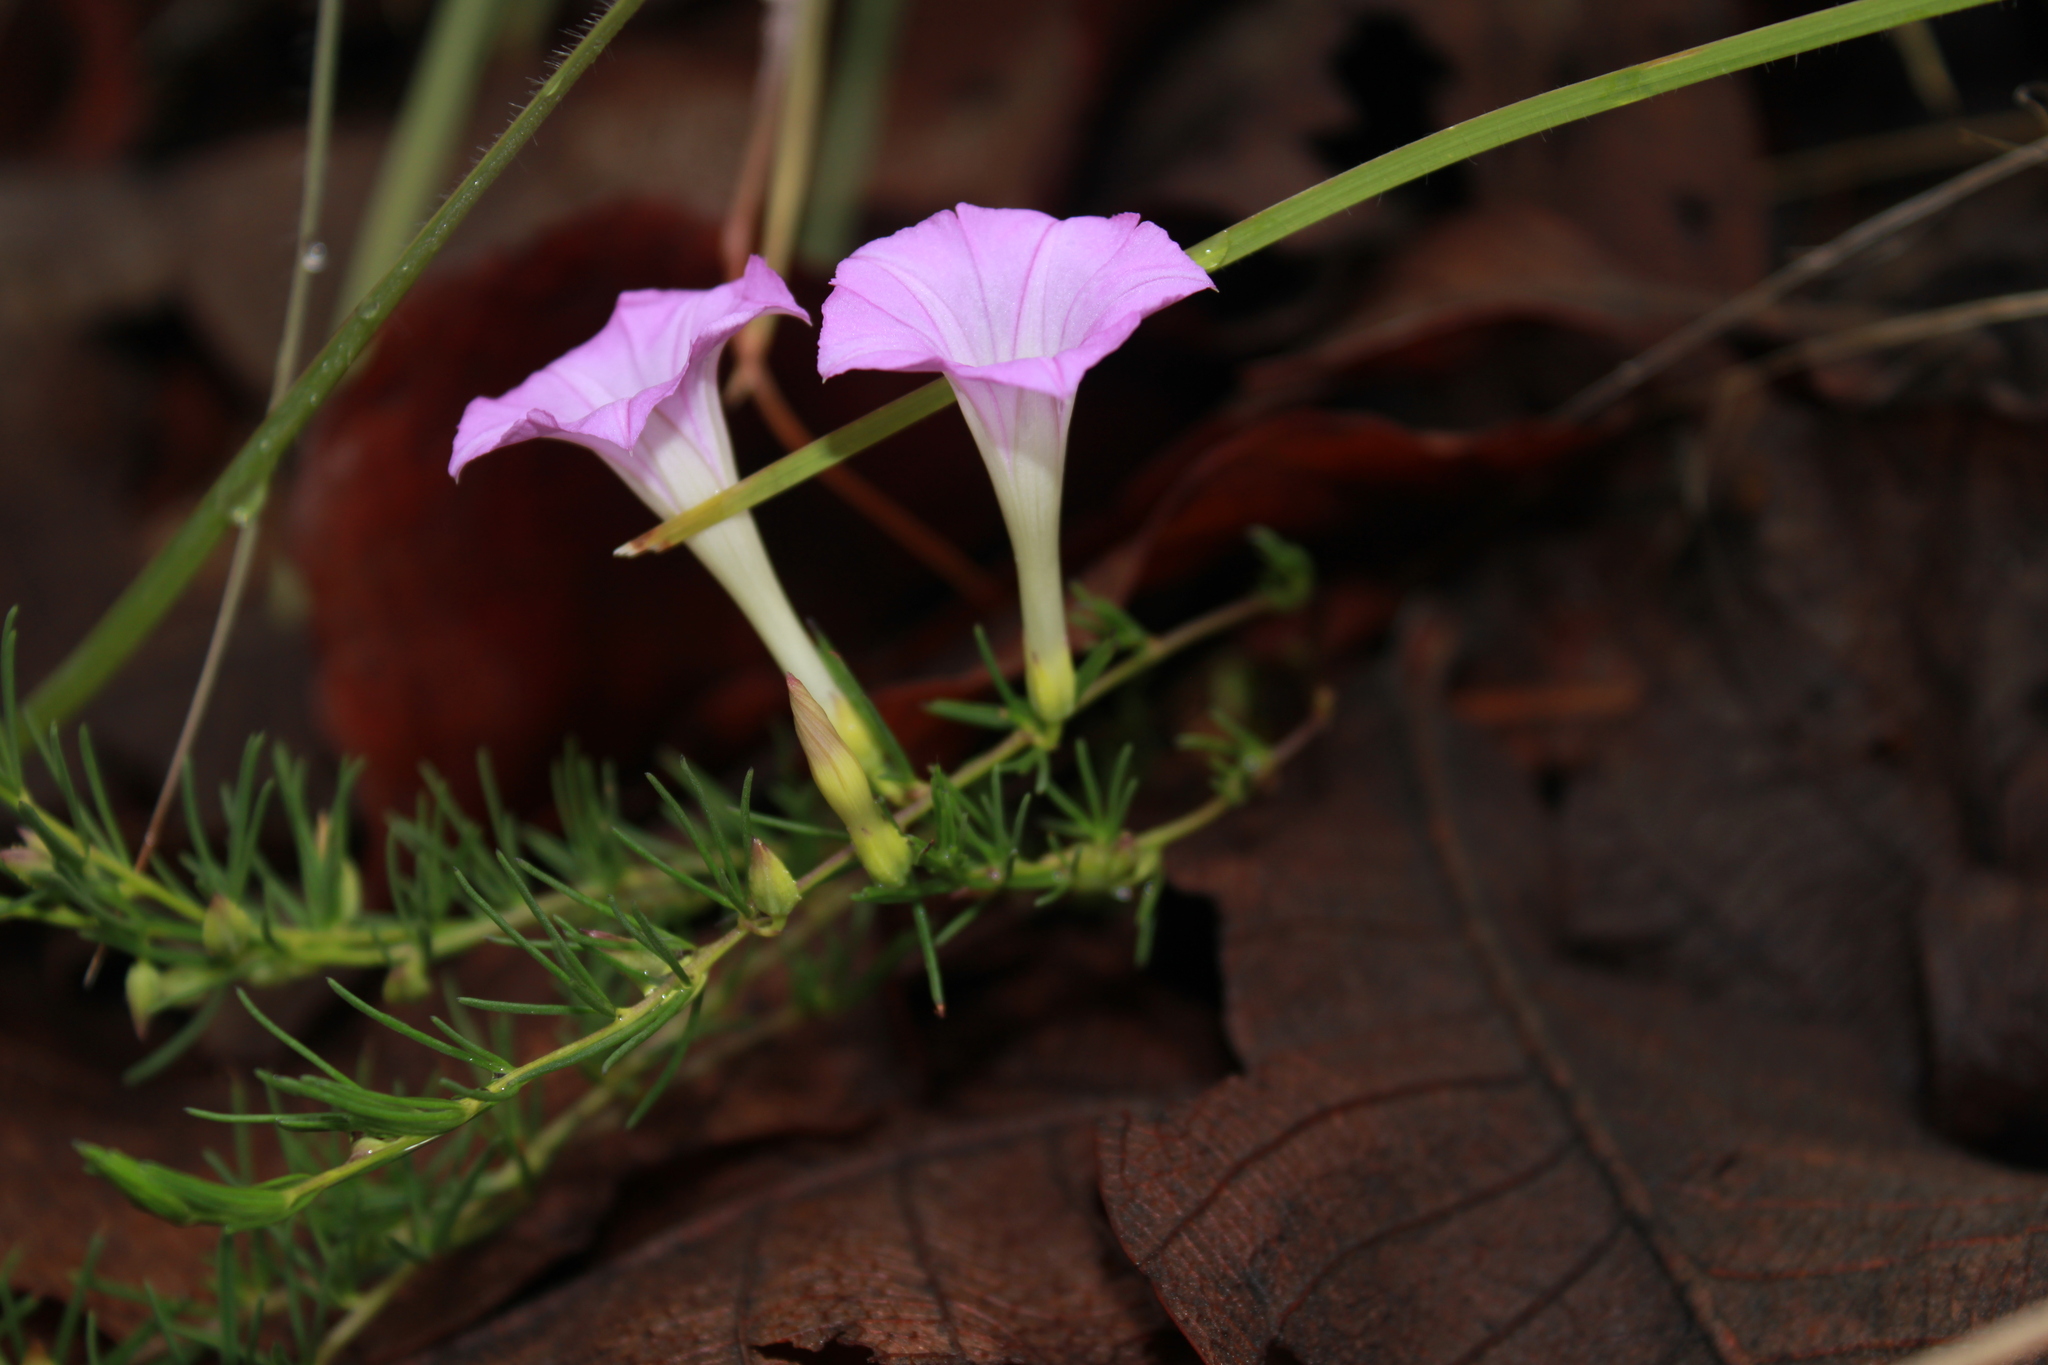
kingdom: Plantae
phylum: Tracheophyta
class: Magnoliopsida
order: Solanales
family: Convolvulaceae
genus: Ipomoea
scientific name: Ipomoea capillacea
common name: Purple morning-glory
